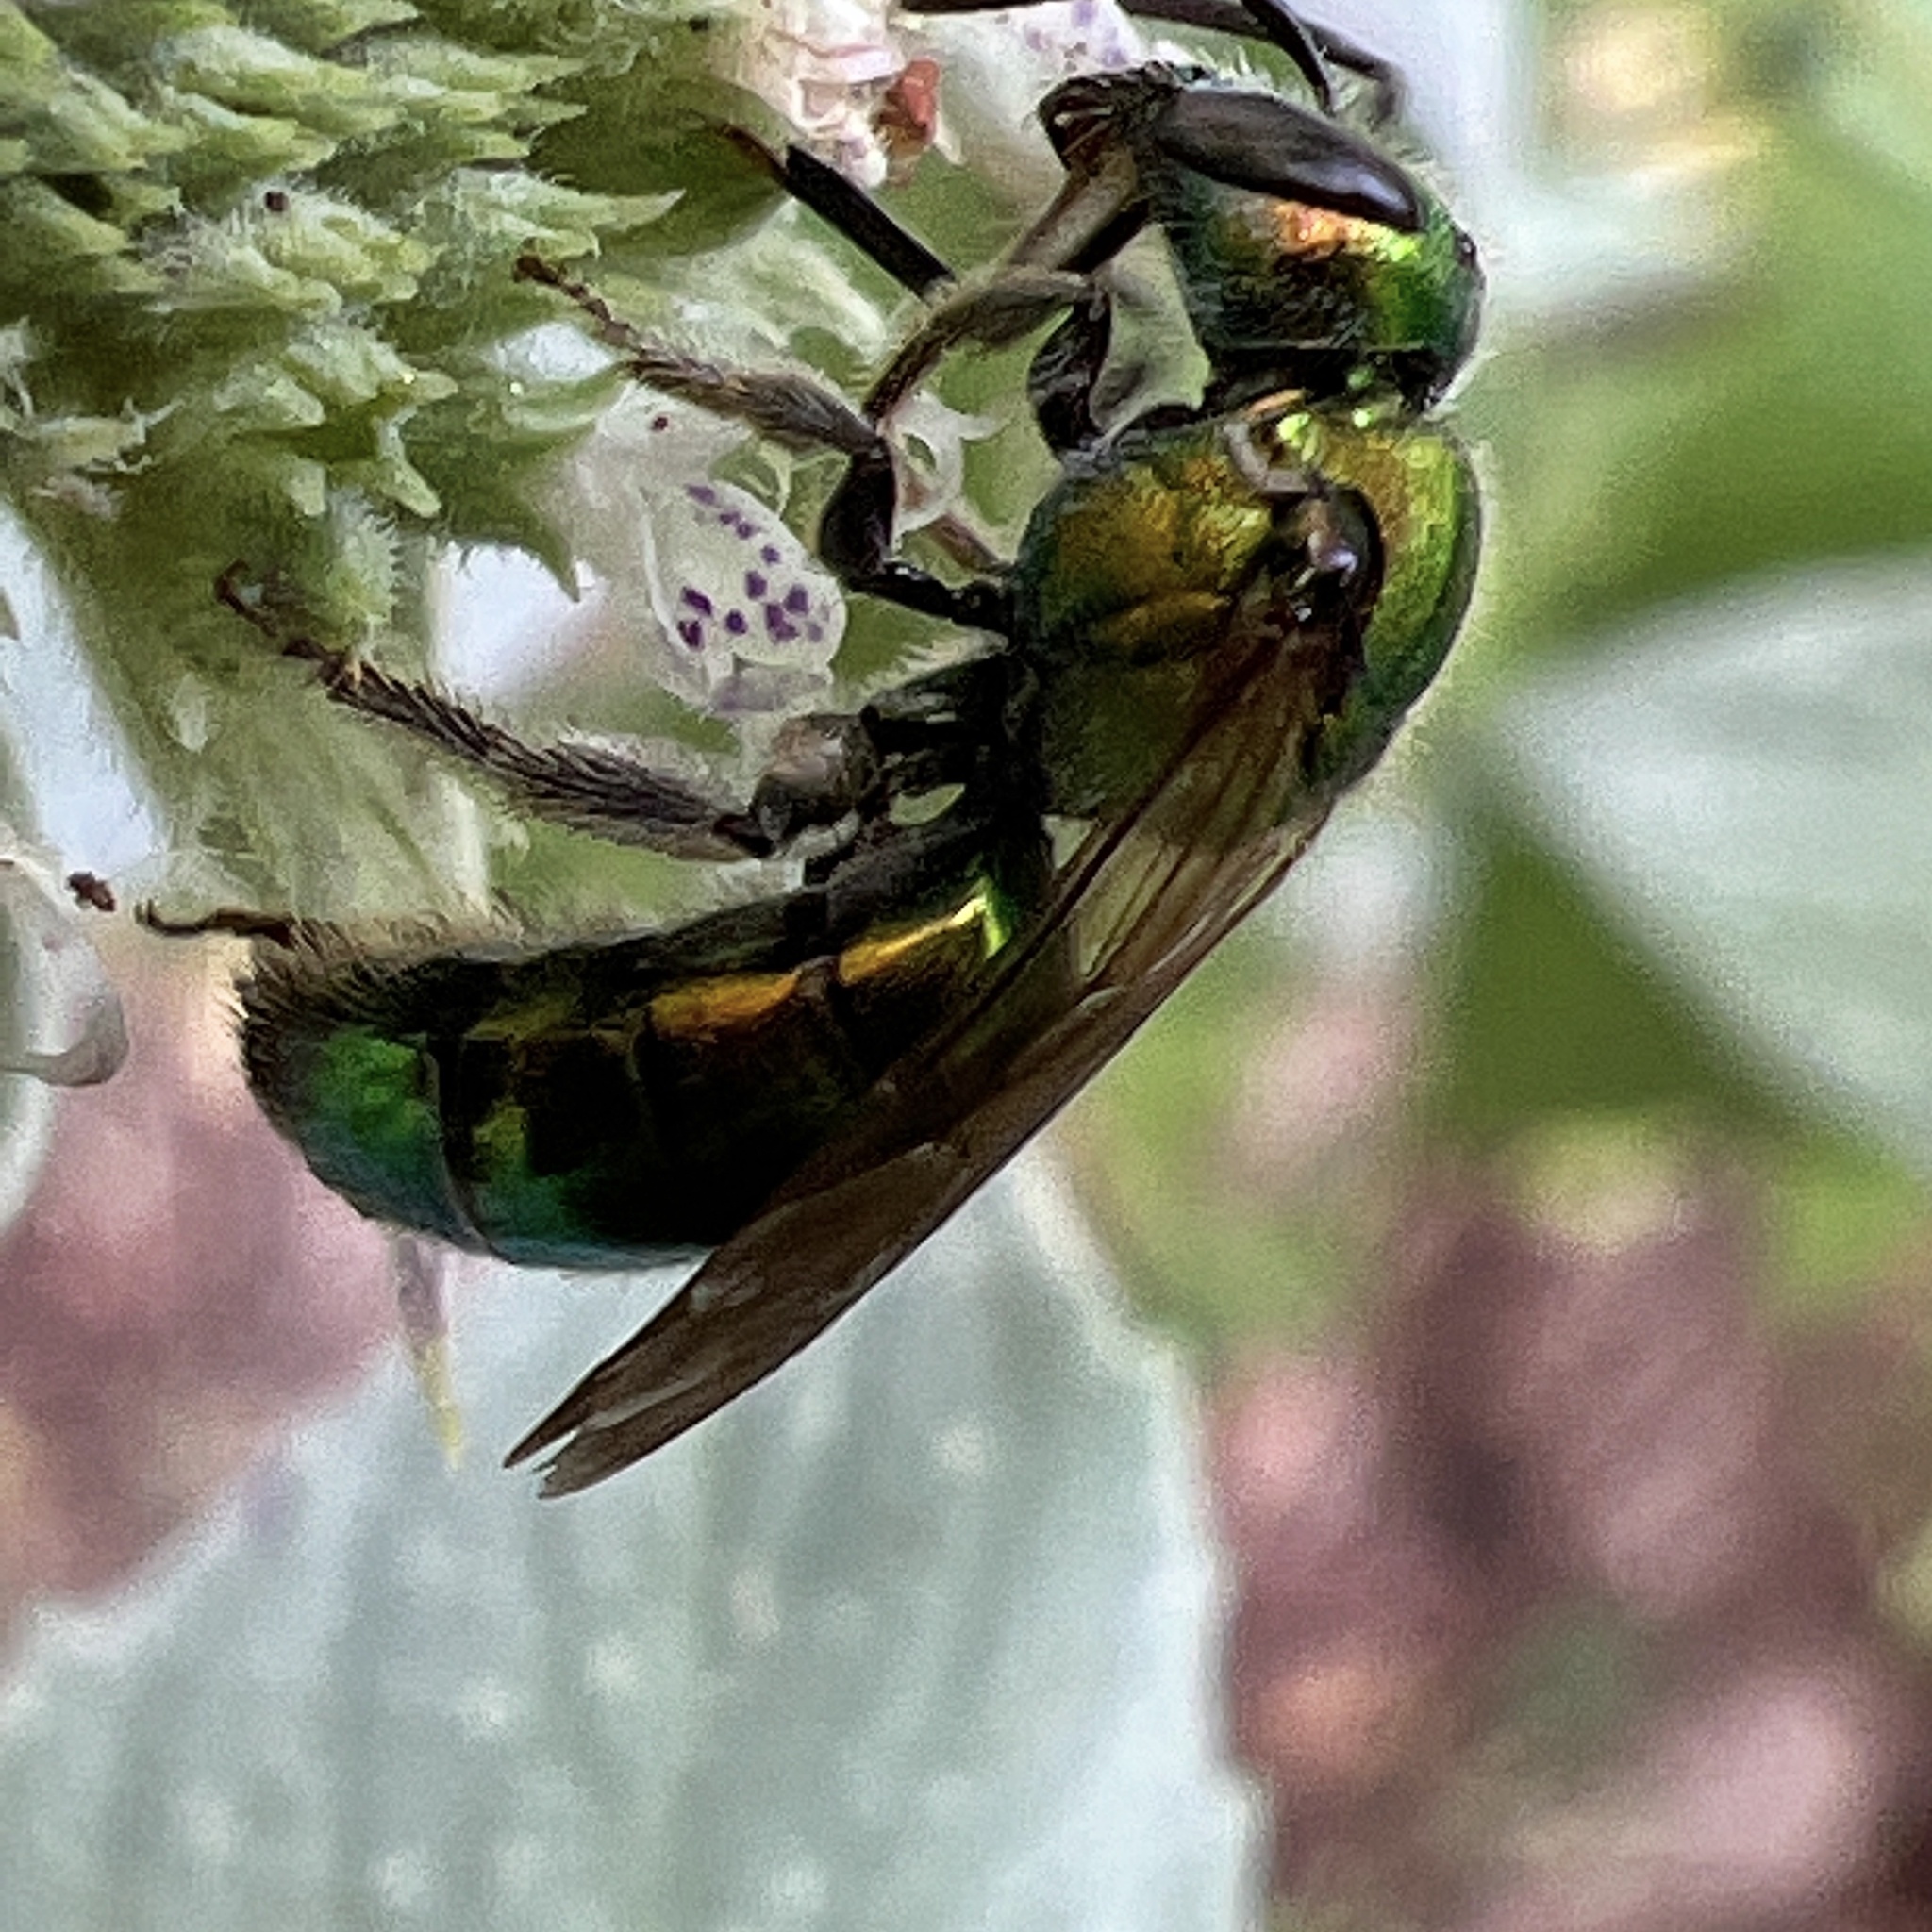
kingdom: Animalia
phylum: Arthropoda
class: Insecta
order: Hymenoptera
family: Halictidae
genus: Augochlora
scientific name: Augochlora pura
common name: Pure green sweat bee
